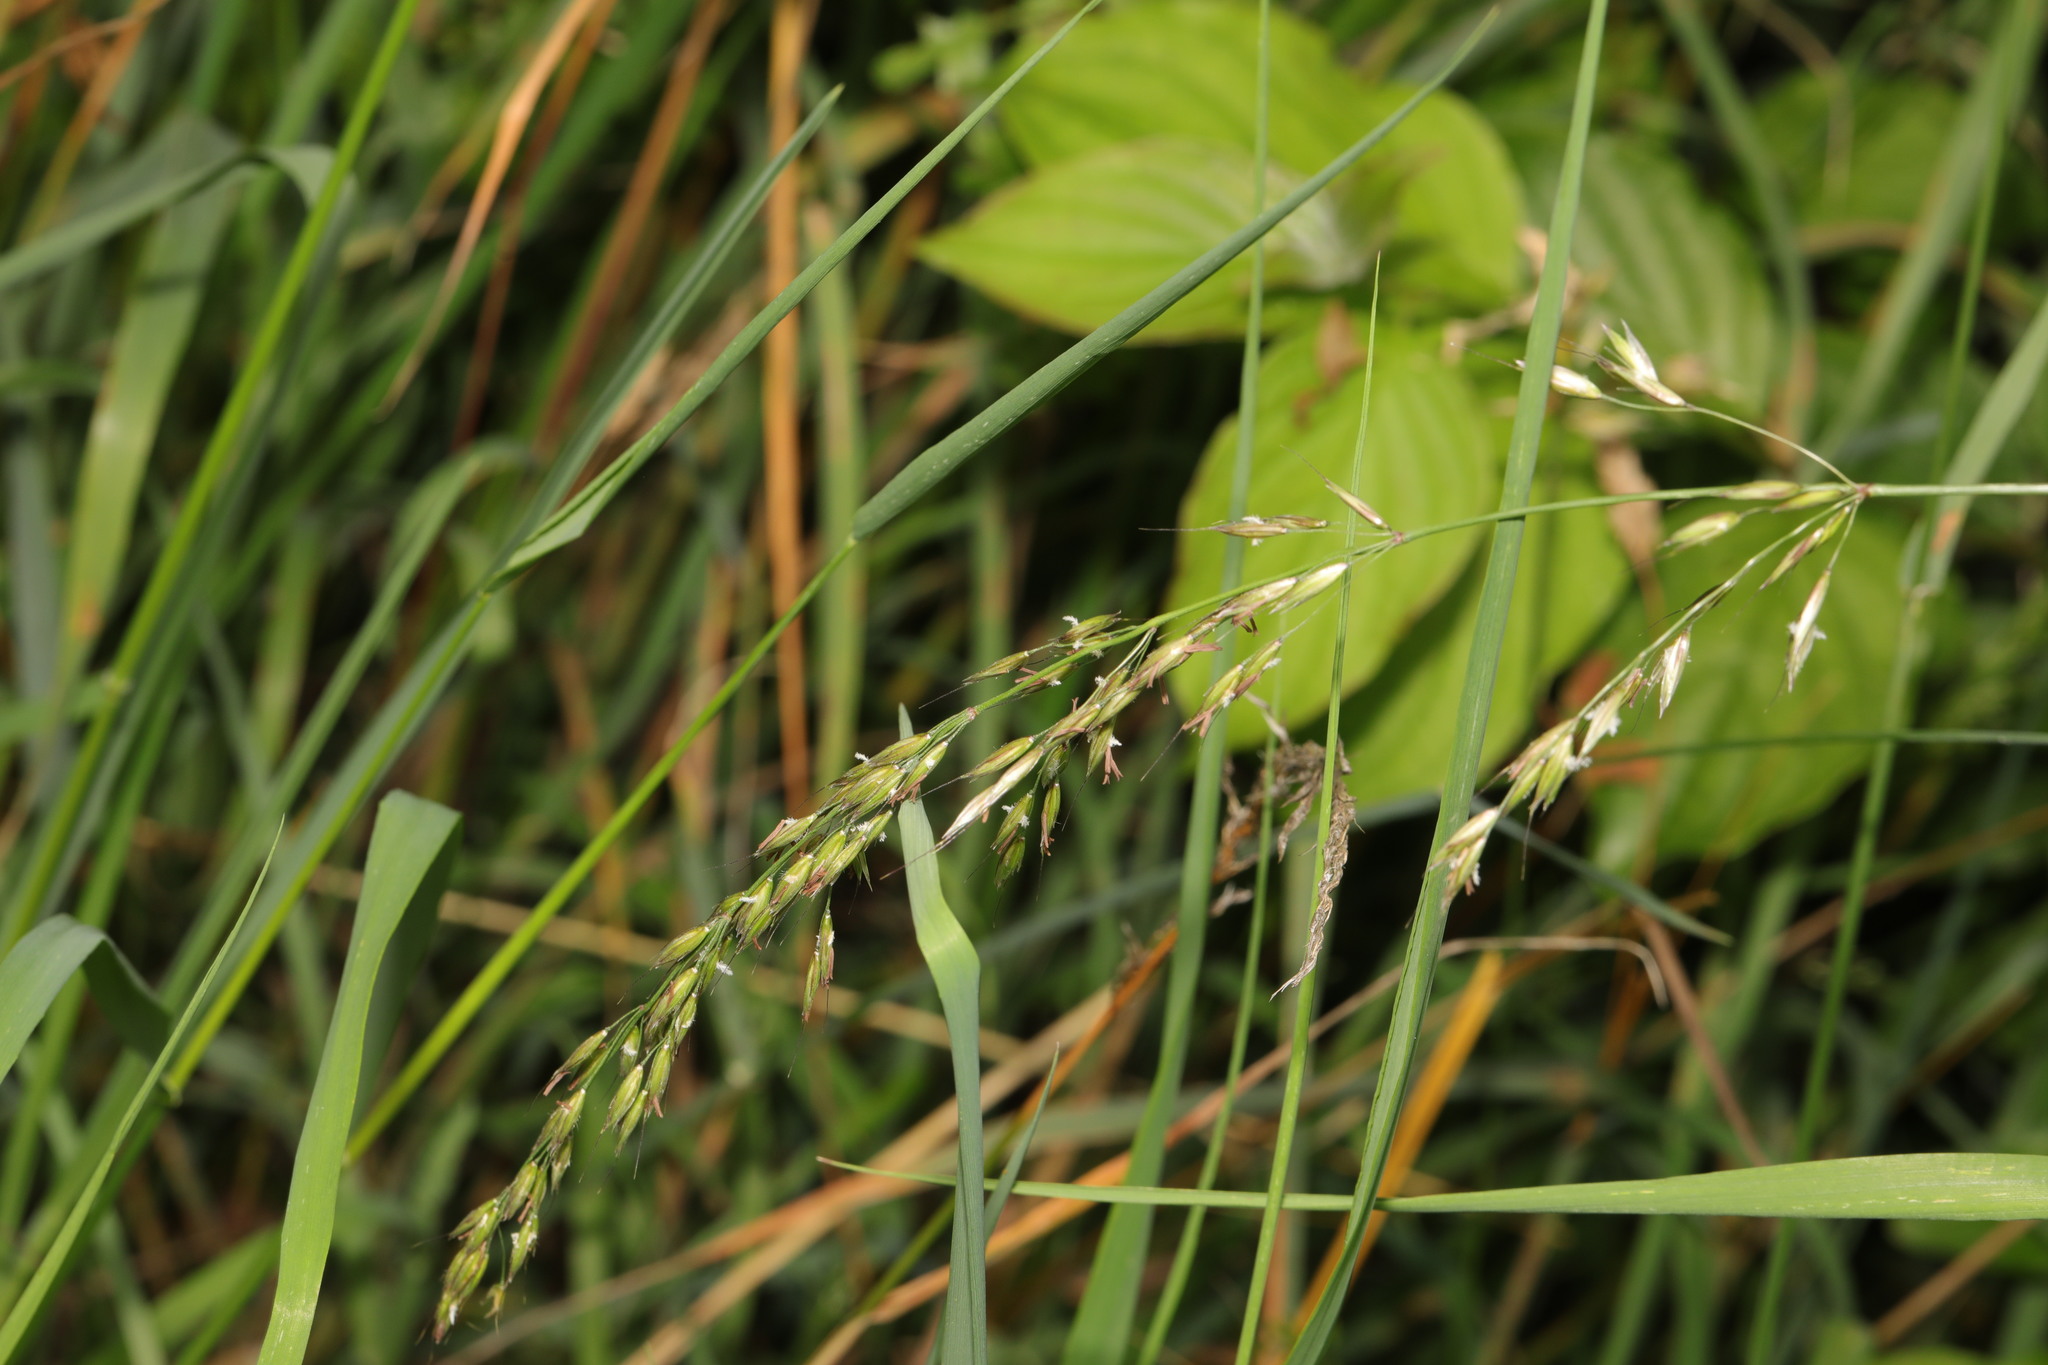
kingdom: Plantae
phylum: Tracheophyta
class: Liliopsida
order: Poales
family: Poaceae
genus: Arrhenatherum
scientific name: Arrhenatherum elatius
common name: Tall oatgrass
